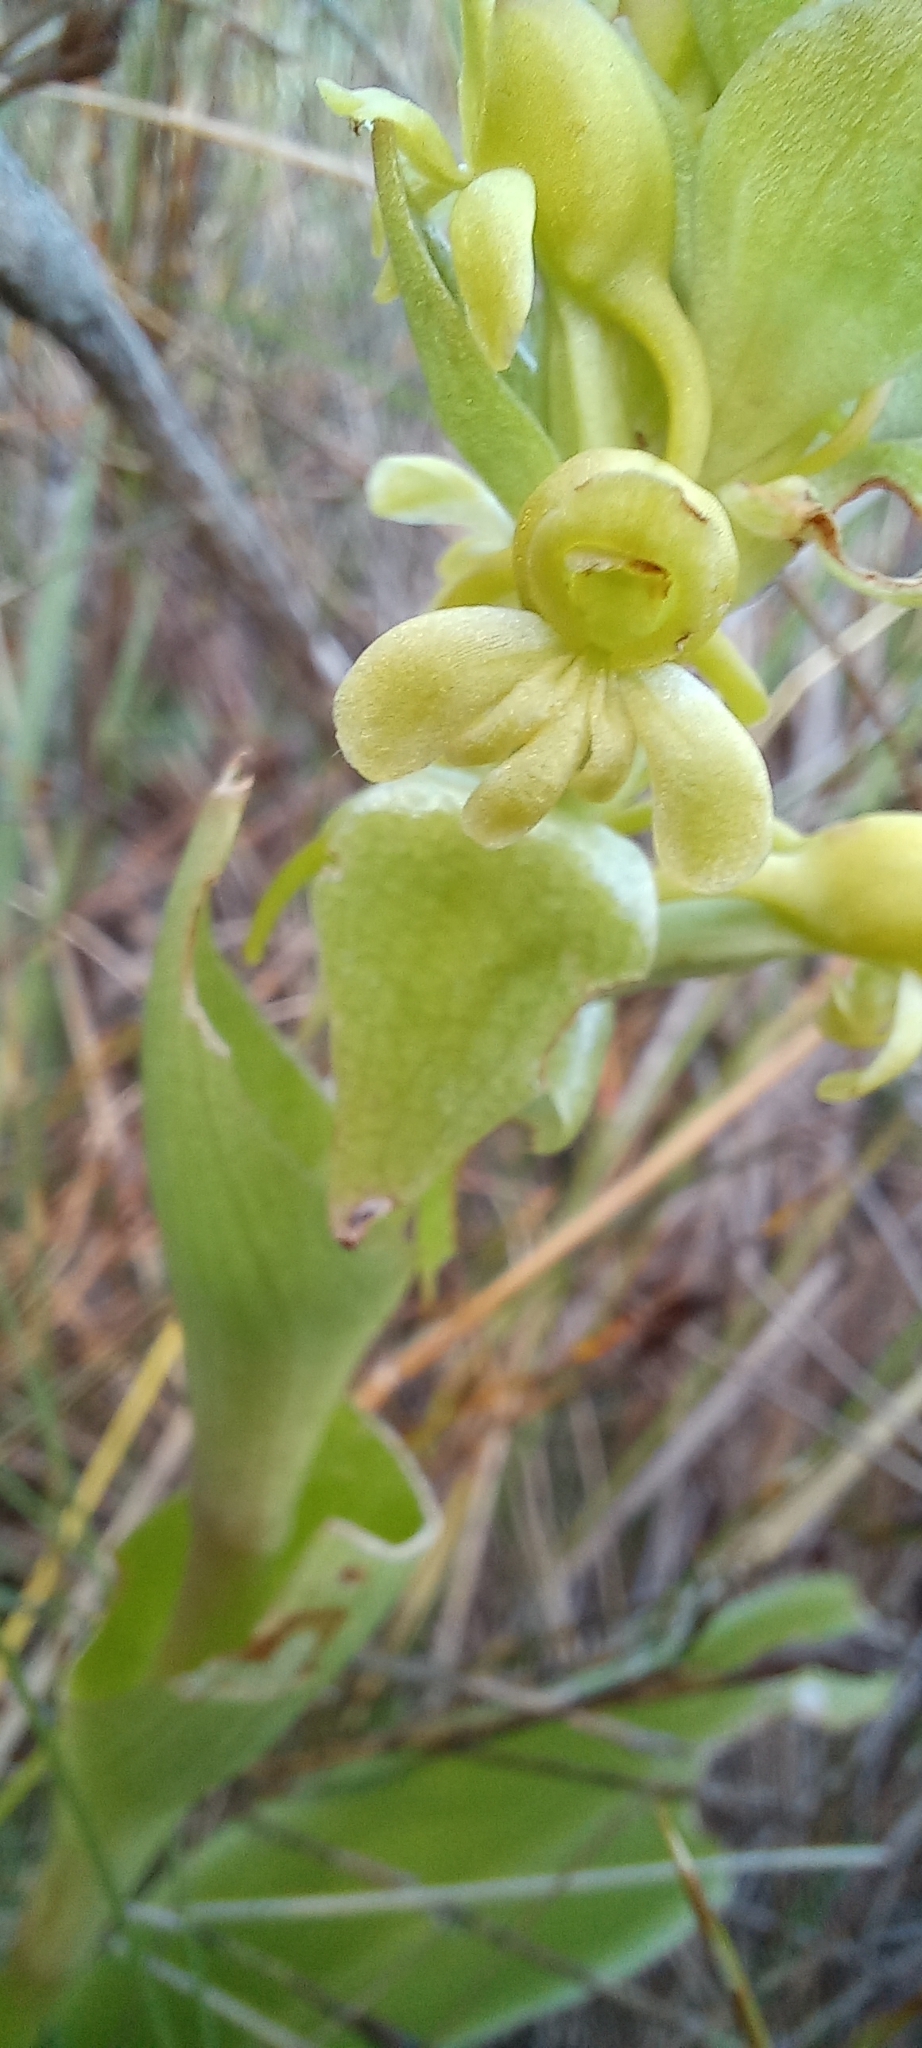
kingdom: Plantae
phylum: Tracheophyta
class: Liliopsida
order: Asparagales
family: Orchidaceae
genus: Satyrium
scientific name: Satyrium odorum
